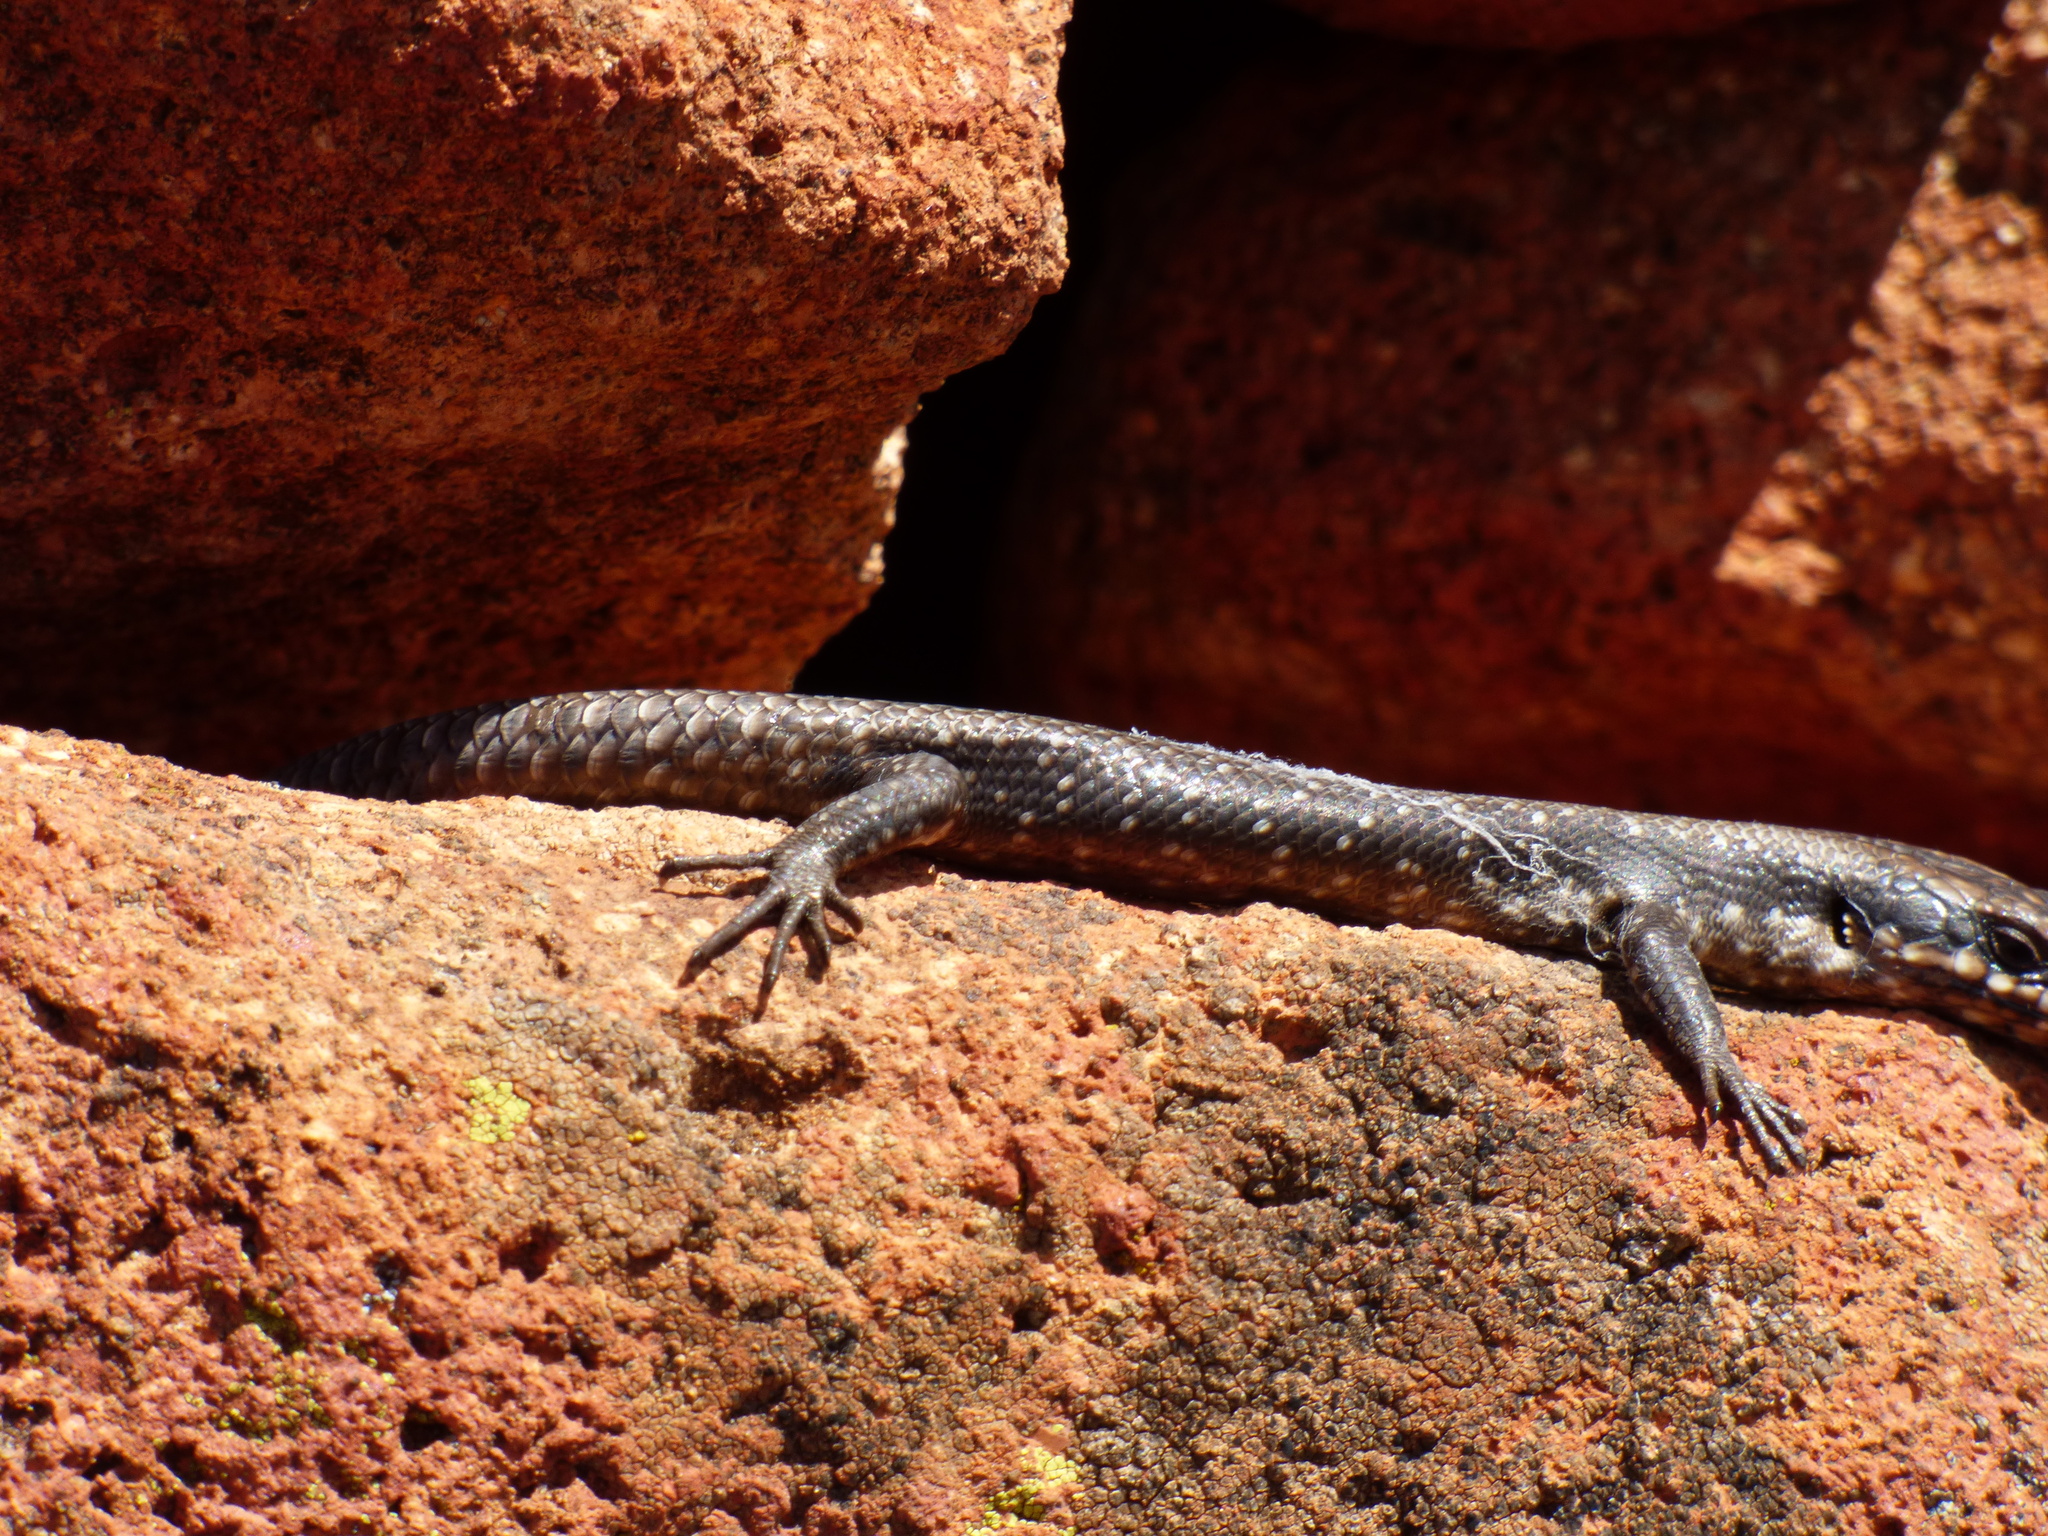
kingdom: Animalia
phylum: Chordata
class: Squamata
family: Scincidae
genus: Egernia
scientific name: Egernia striolata
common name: Tree skink
